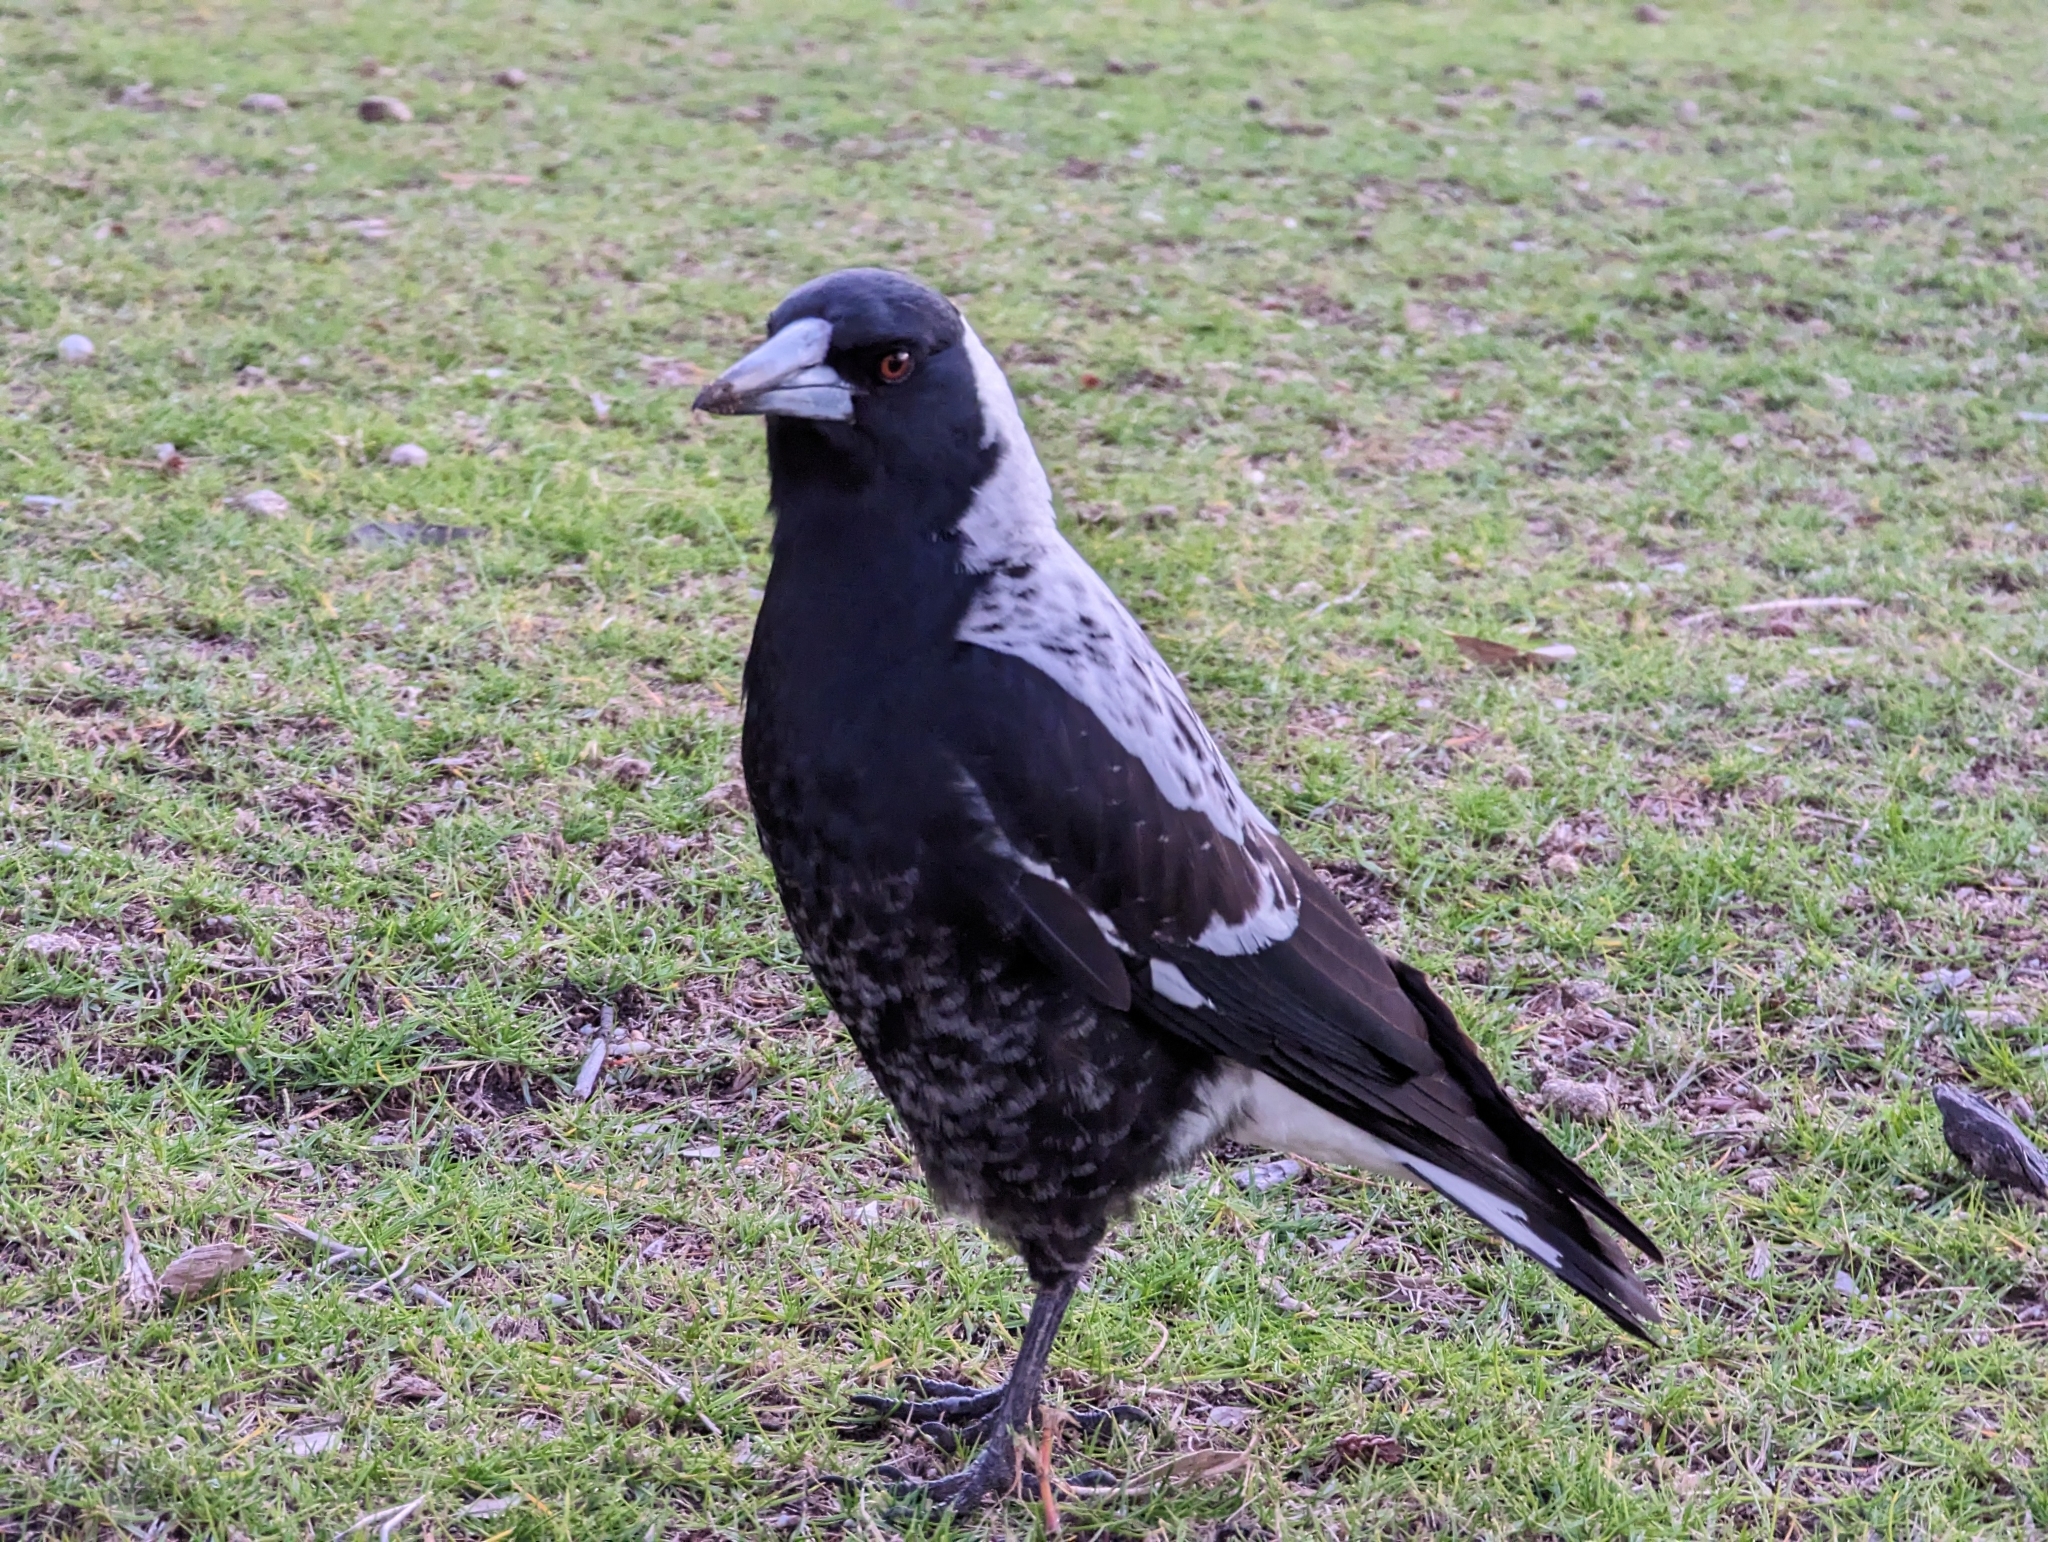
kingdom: Animalia
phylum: Chordata
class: Aves
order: Passeriformes
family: Cracticidae
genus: Gymnorhina
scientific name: Gymnorhina tibicen
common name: Australian magpie
